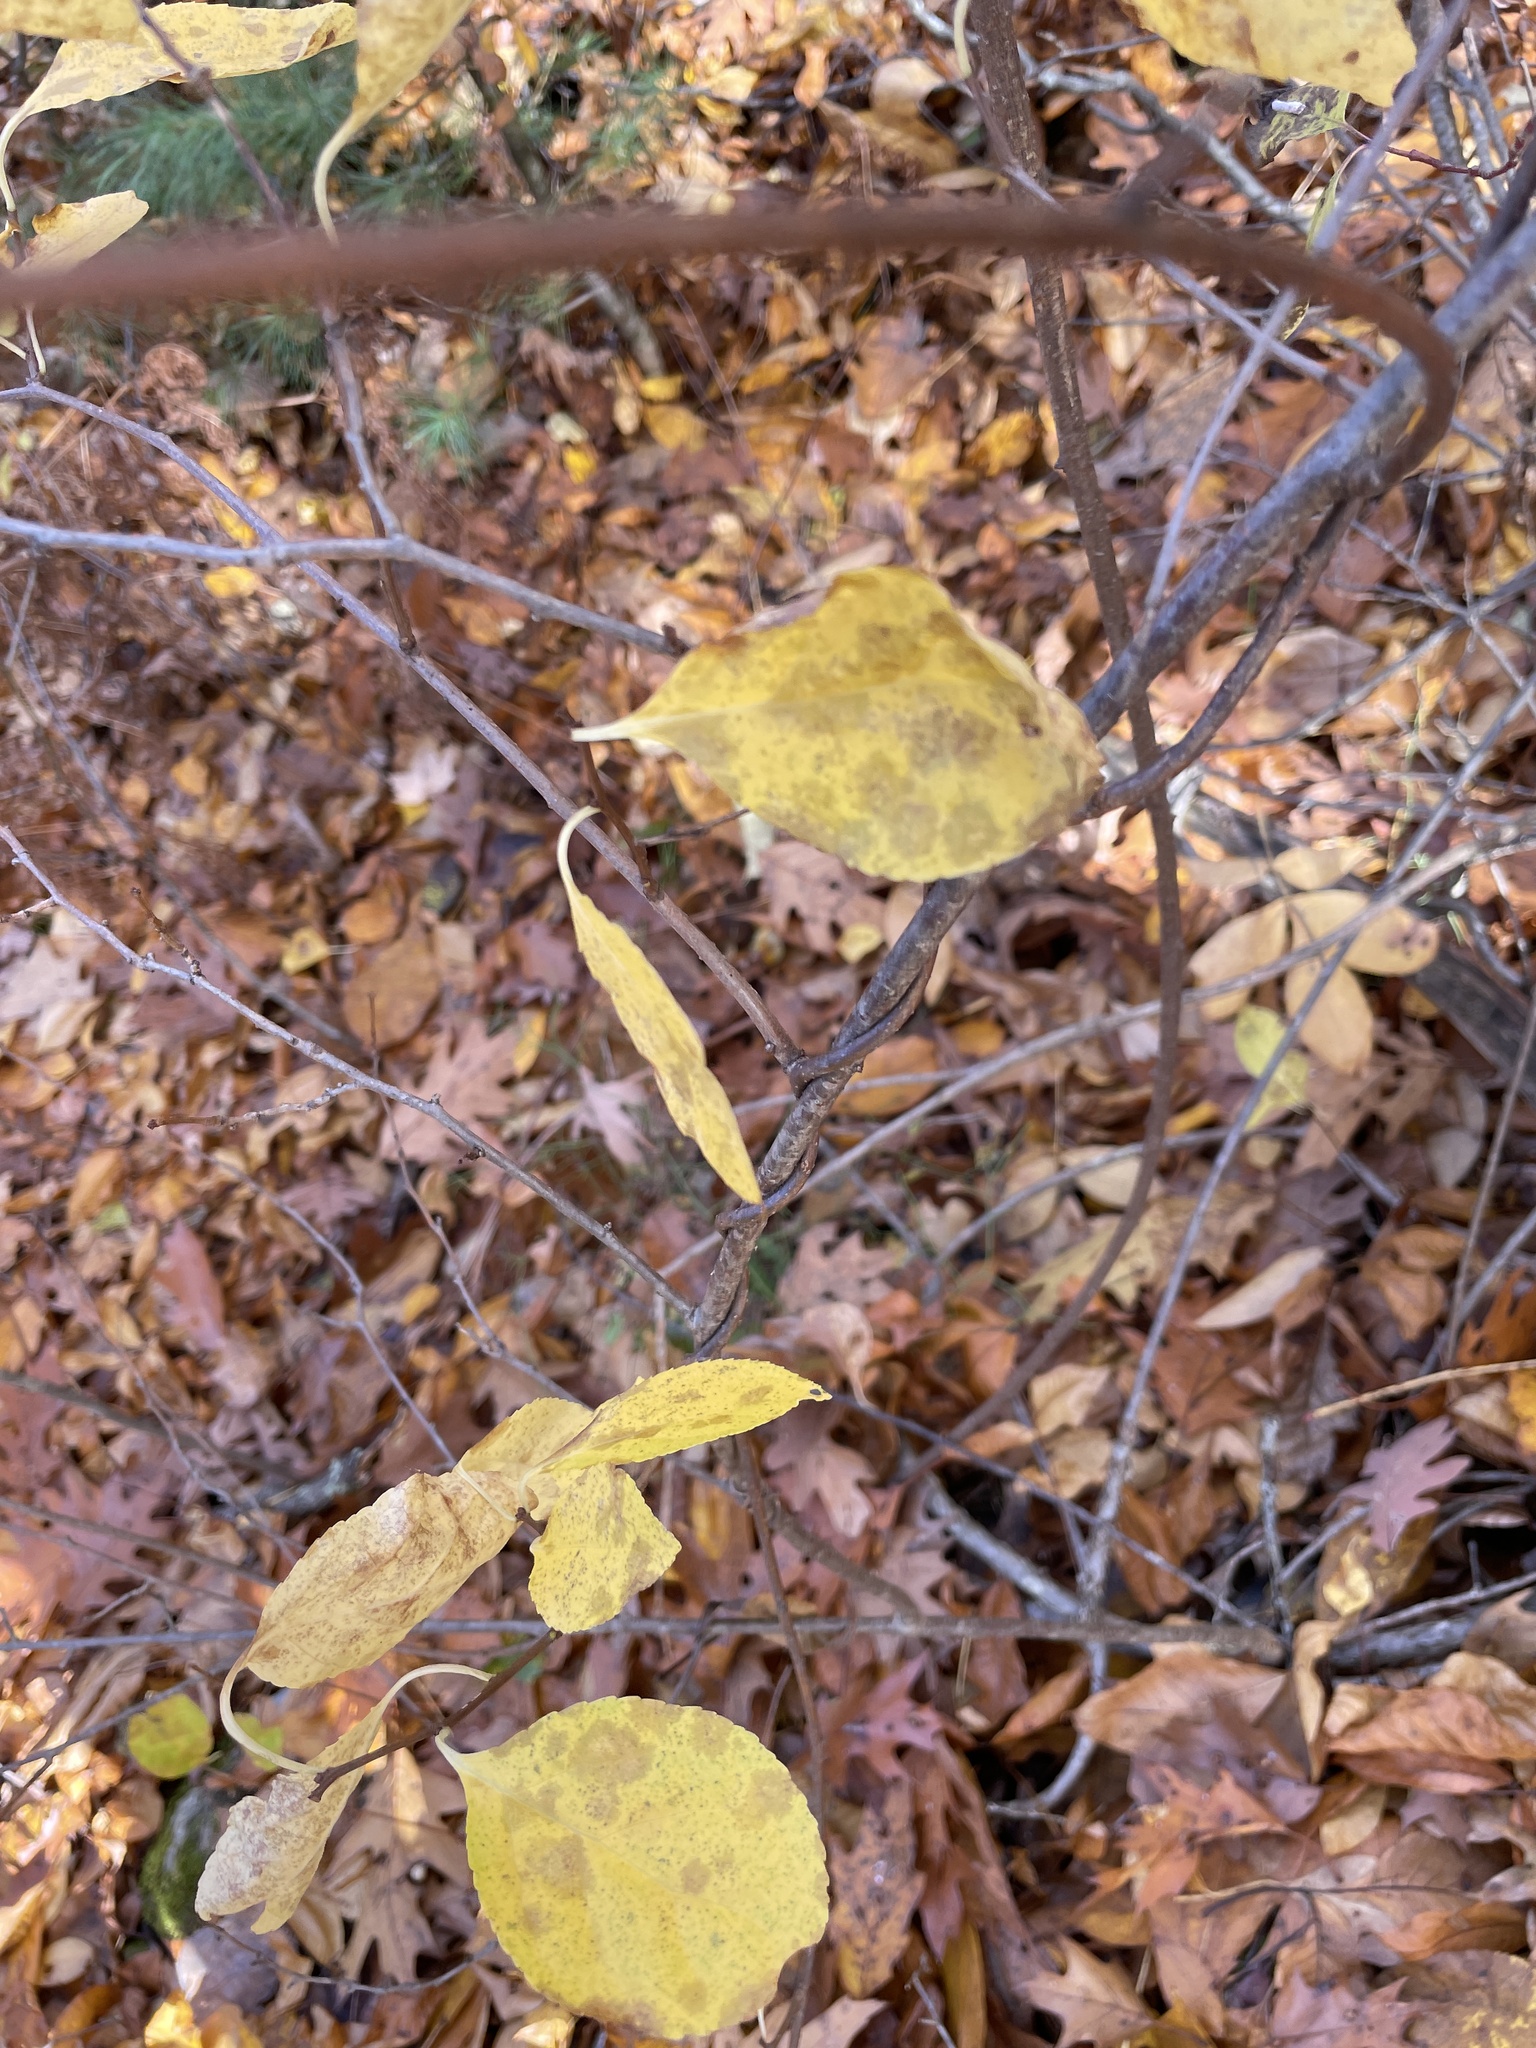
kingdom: Plantae
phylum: Tracheophyta
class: Magnoliopsida
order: Celastrales
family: Celastraceae
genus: Celastrus
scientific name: Celastrus orbiculatus
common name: Oriental bittersweet
